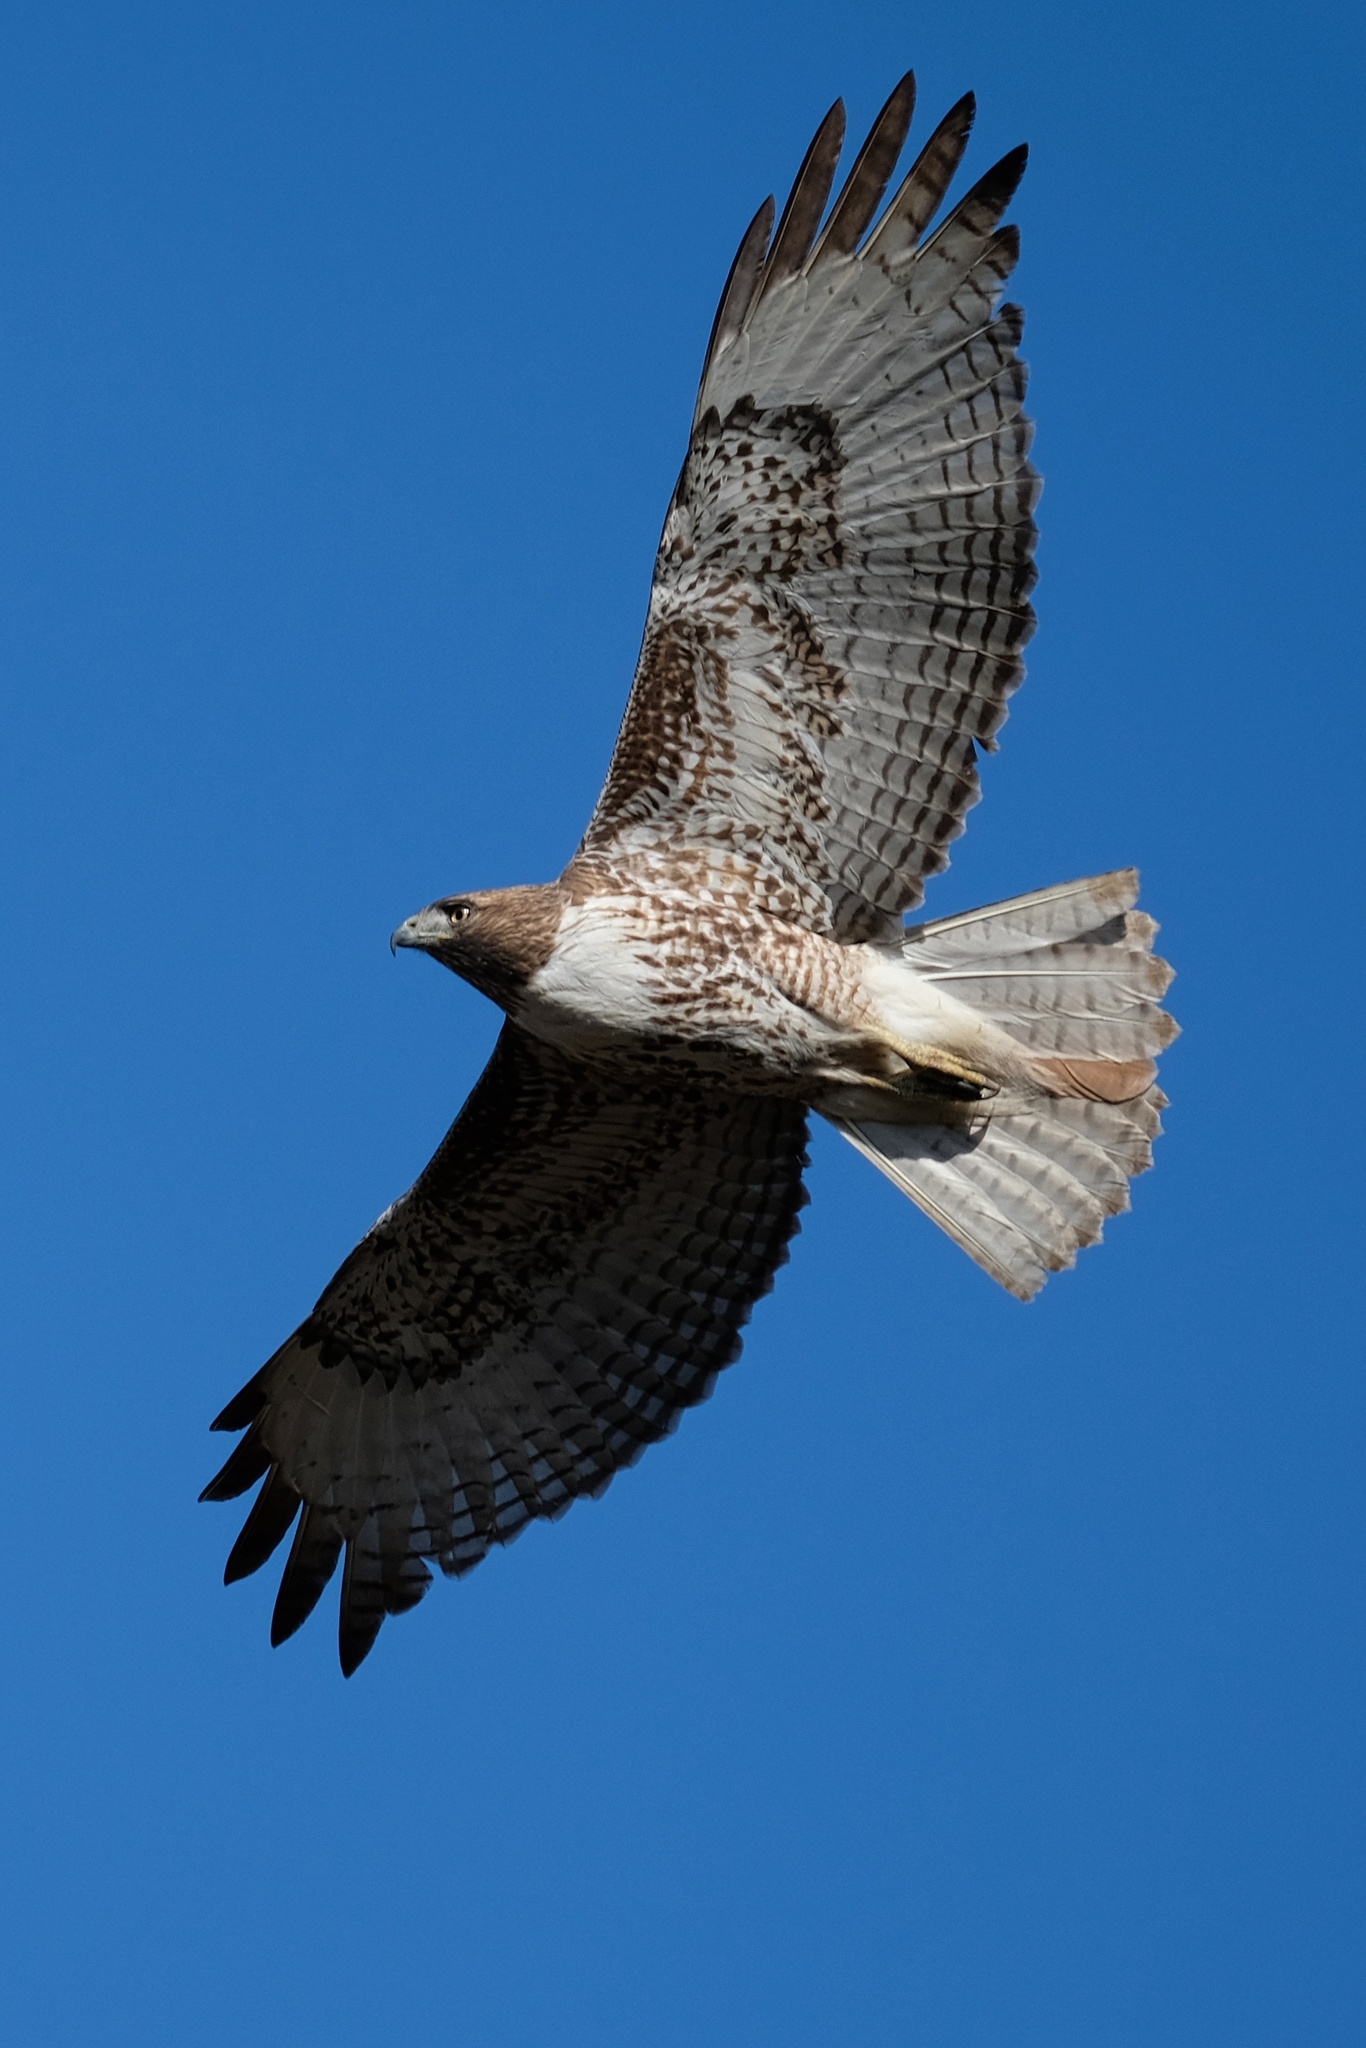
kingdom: Animalia
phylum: Chordata
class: Aves
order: Accipitriformes
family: Accipitridae
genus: Buteo
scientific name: Buteo jamaicensis
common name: Red-tailed hawk
